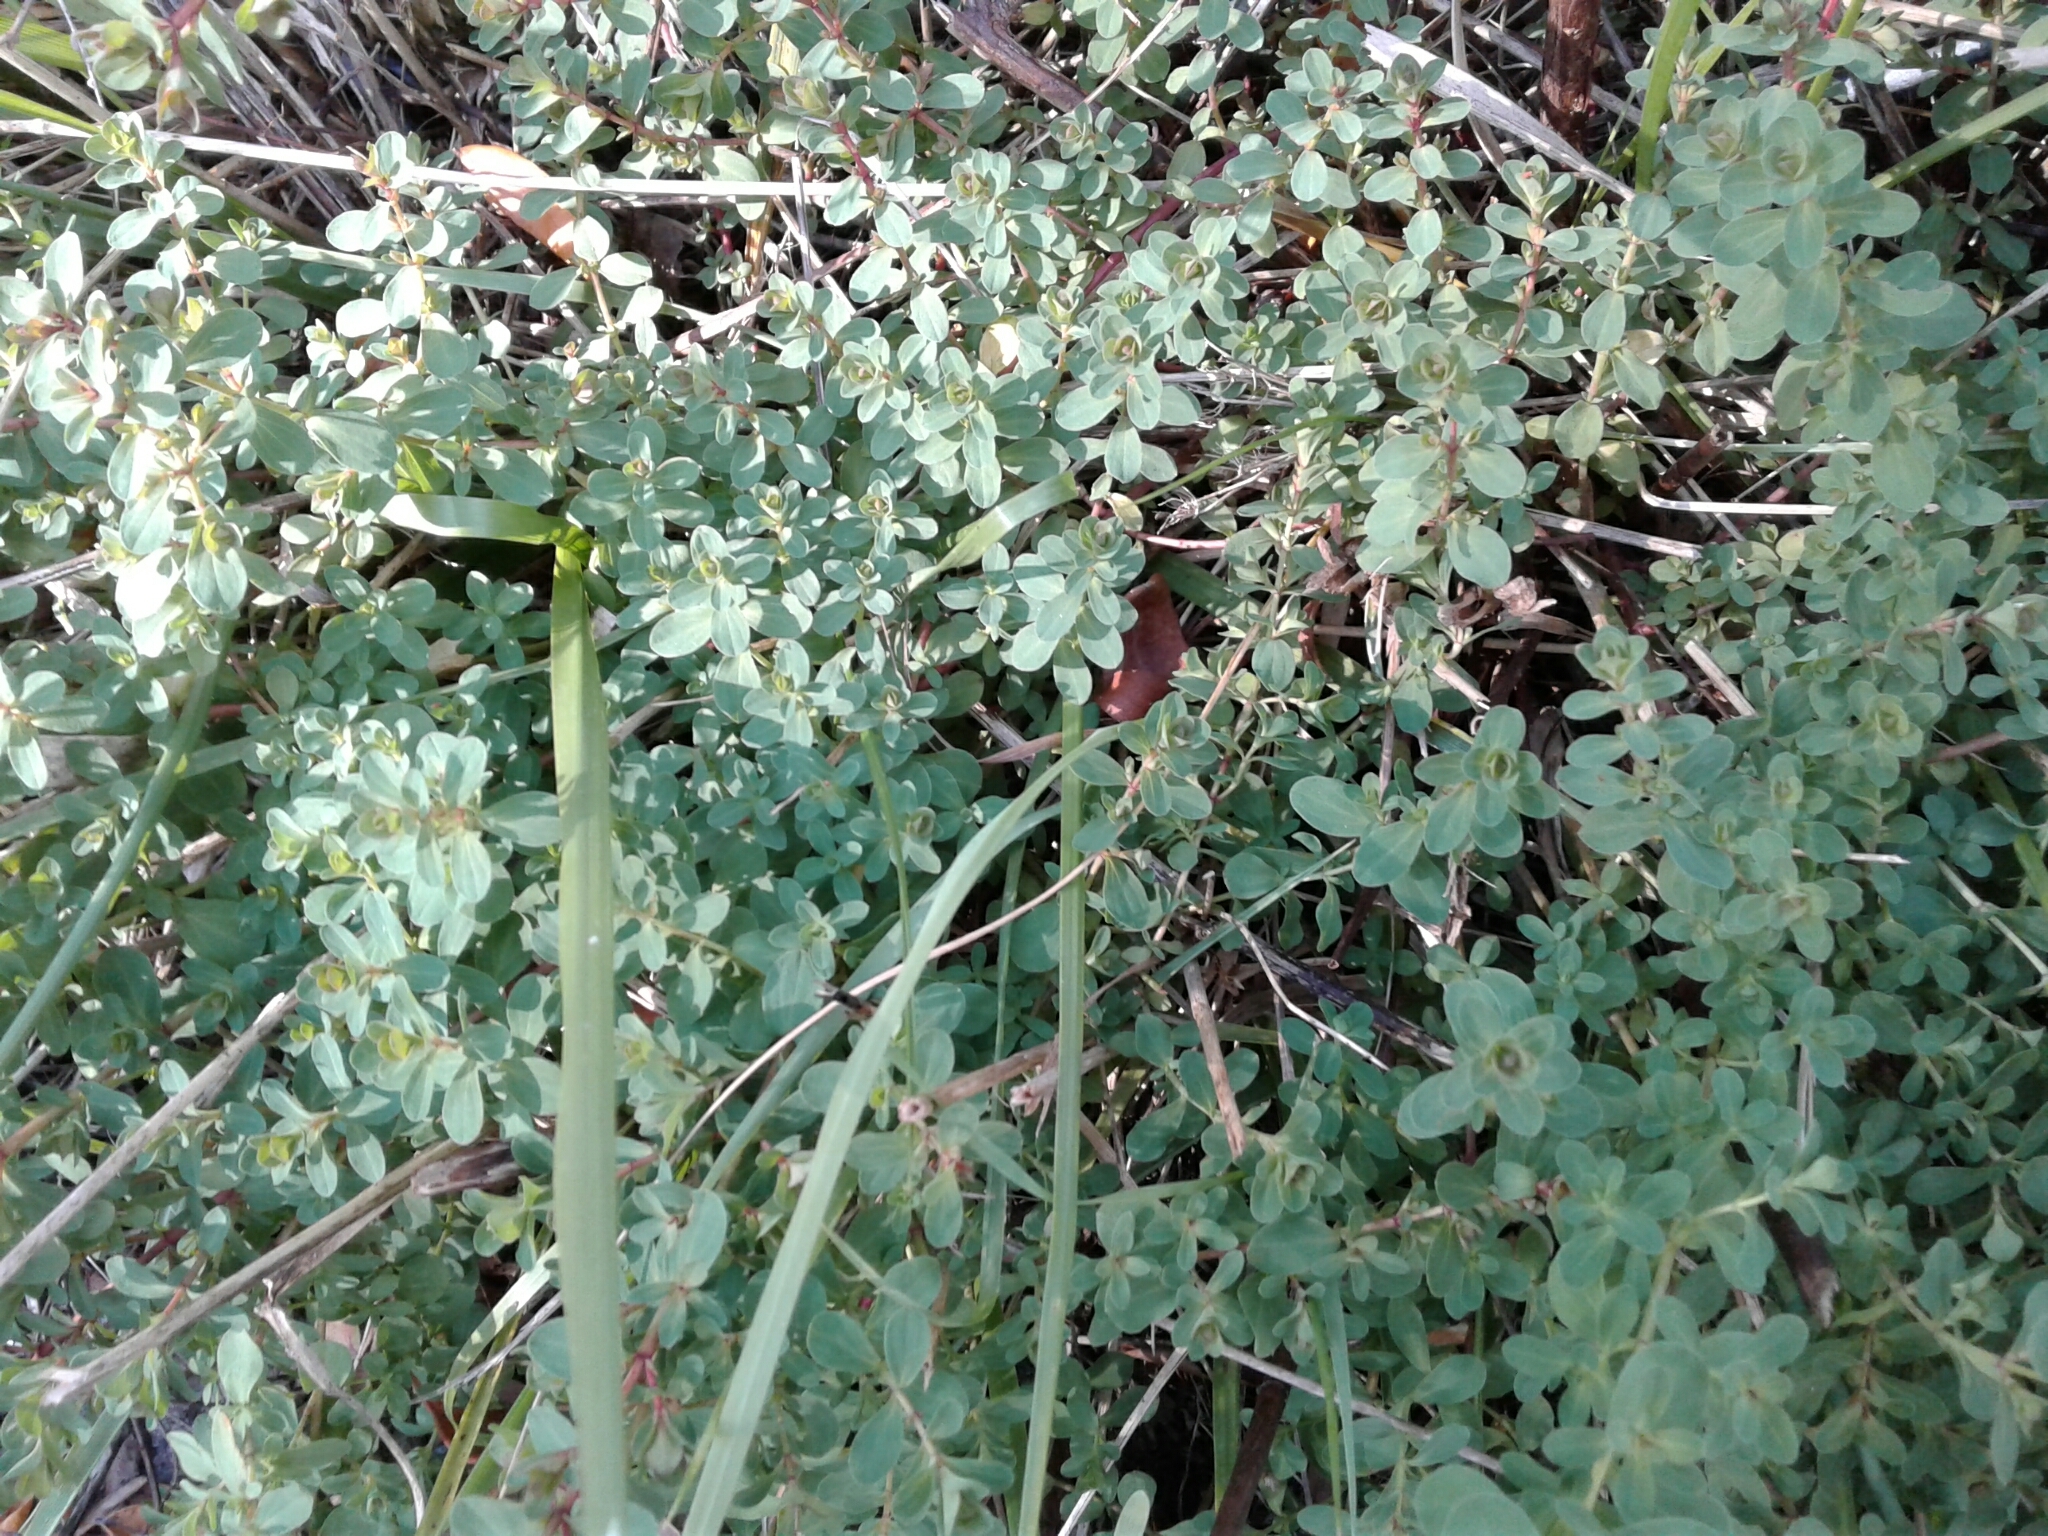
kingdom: Plantae
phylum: Tracheophyta
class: Magnoliopsida
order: Malpighiales
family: Hypericaceae
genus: Hypericum
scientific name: Hypericum perforatum
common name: Common st. johnswort
